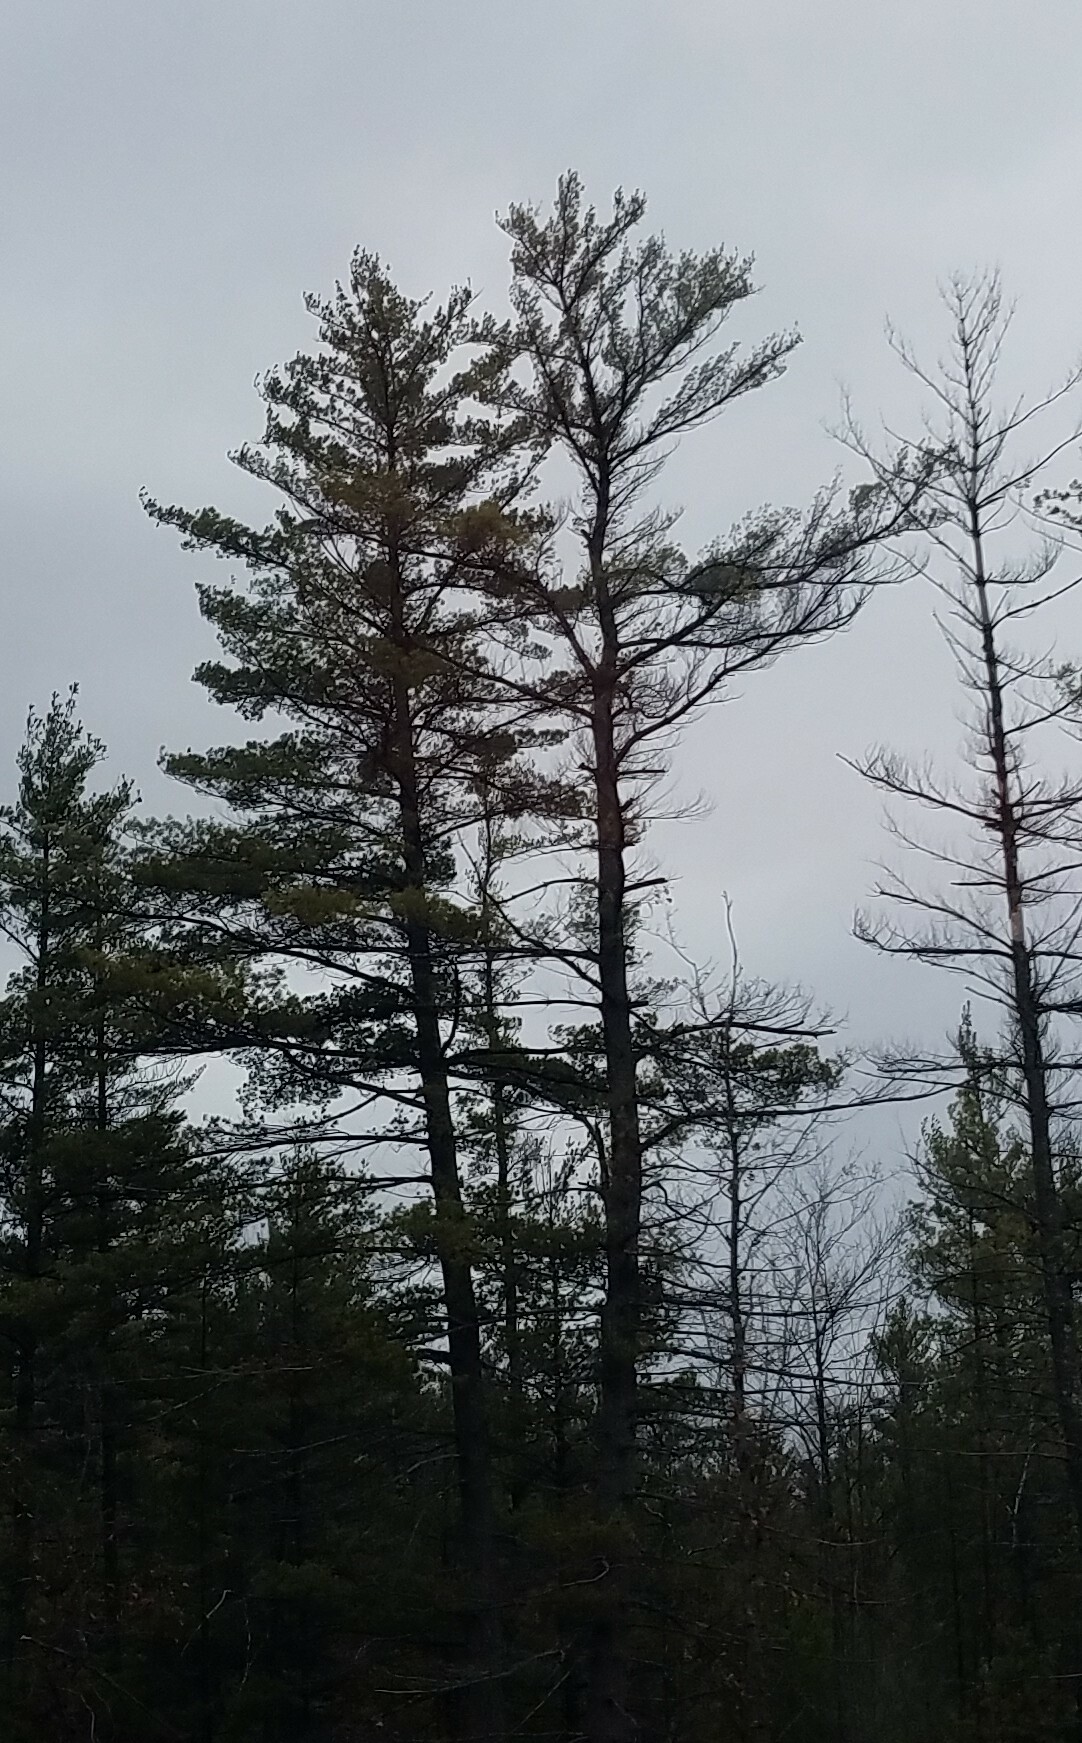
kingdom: Plantae
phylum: Tracheophyta
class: Pinopsida
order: Pinales
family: Pinaceae
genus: Pinus
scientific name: Pinus strobus
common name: Weymouth pine
